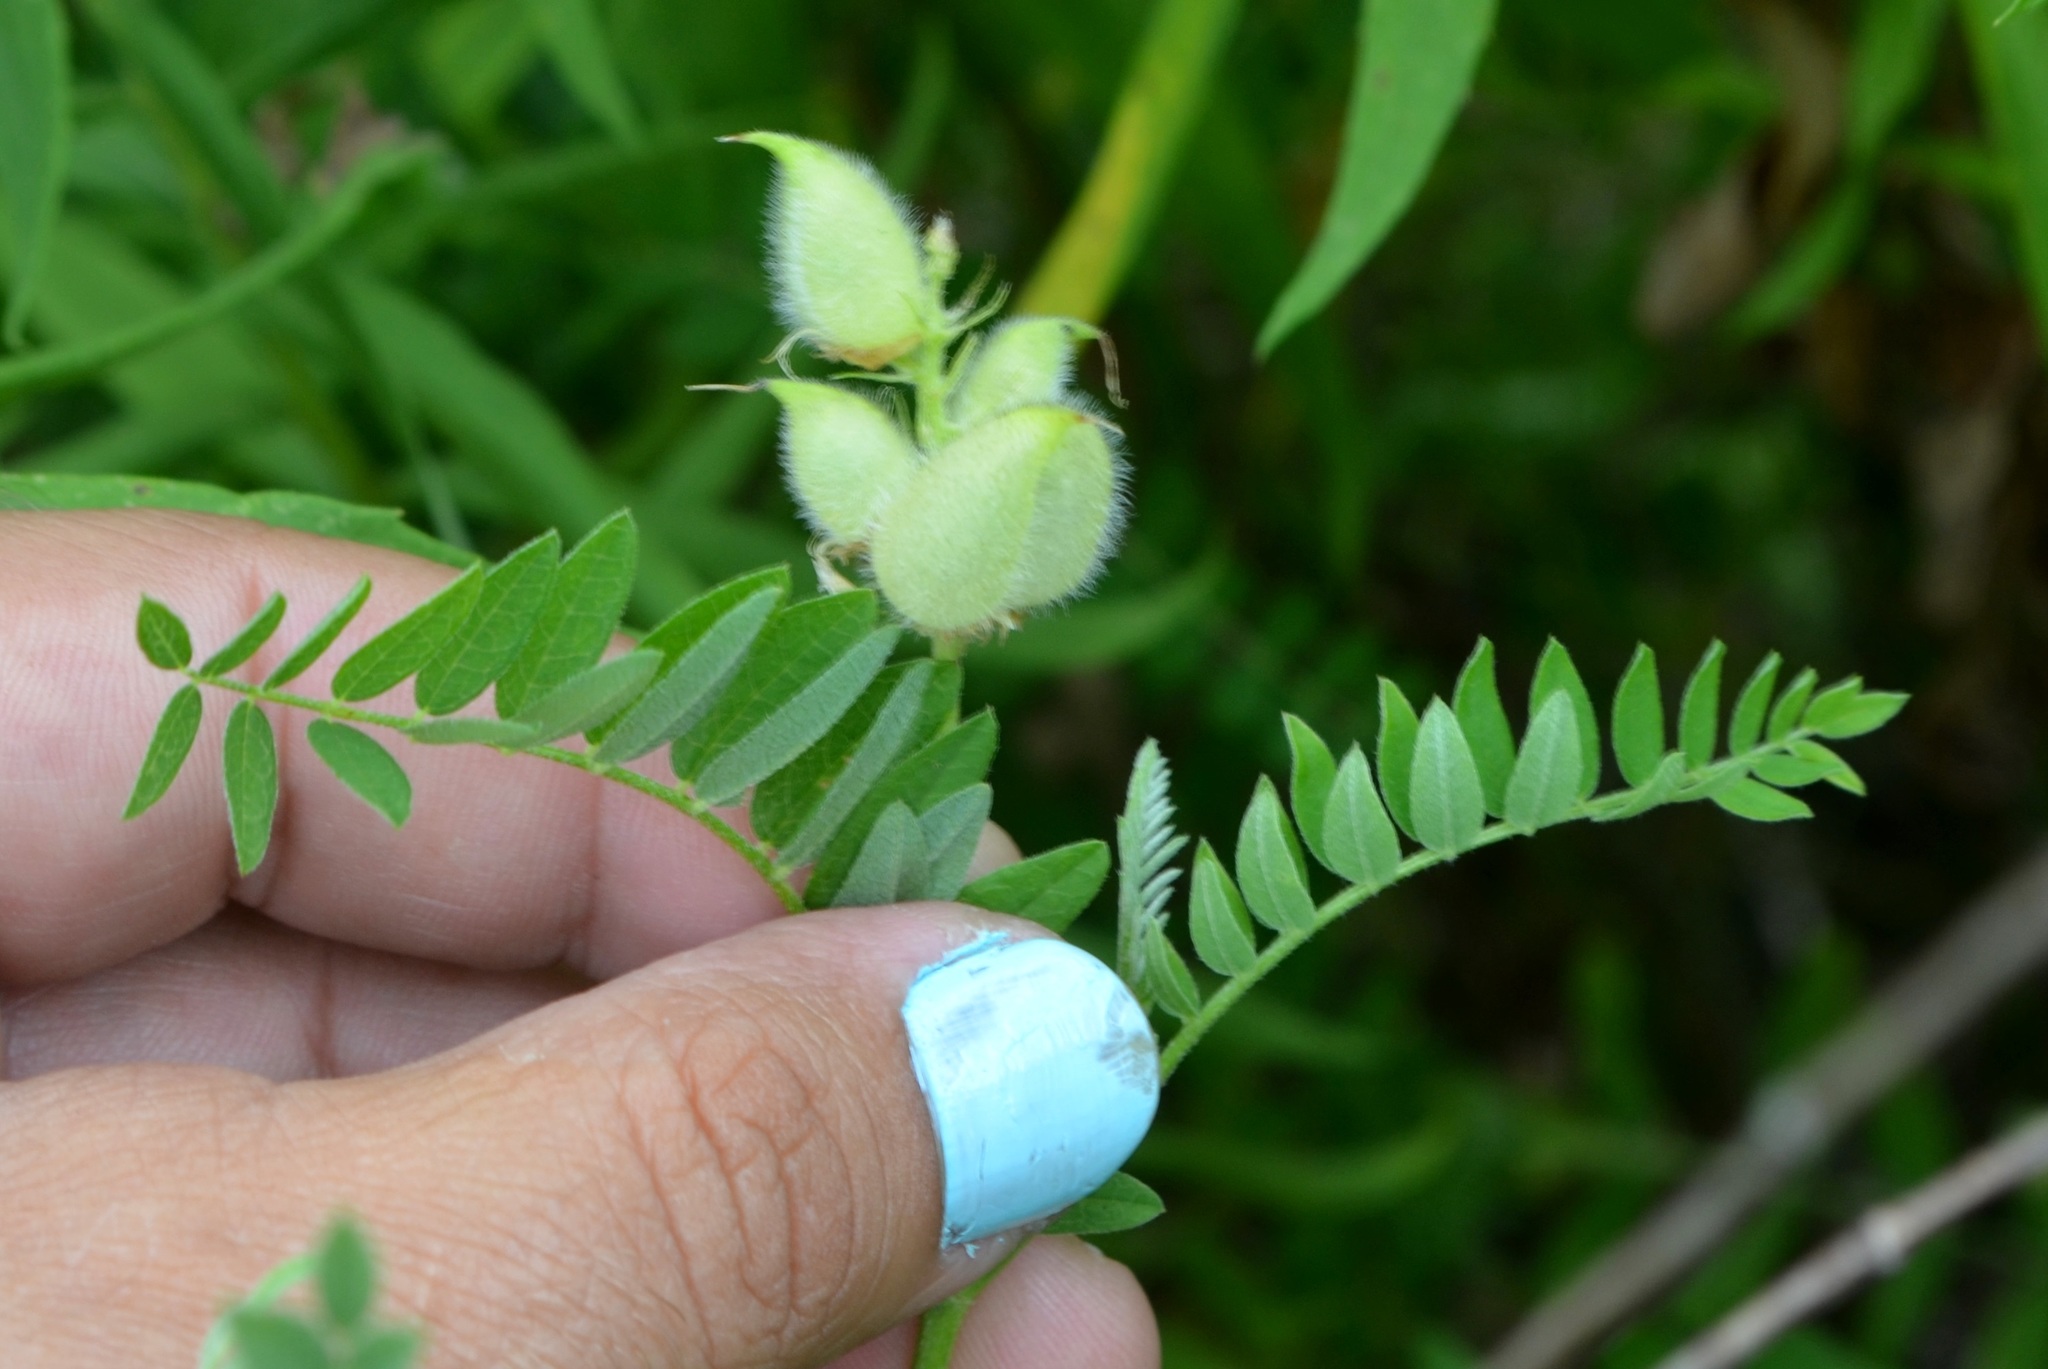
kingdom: Plantae
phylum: Tracheophyta
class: Magnoliopsida
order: Fabales
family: Fabaceae
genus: Astragalus
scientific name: Astragalus cicer
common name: Chick-pea milk-vetch
